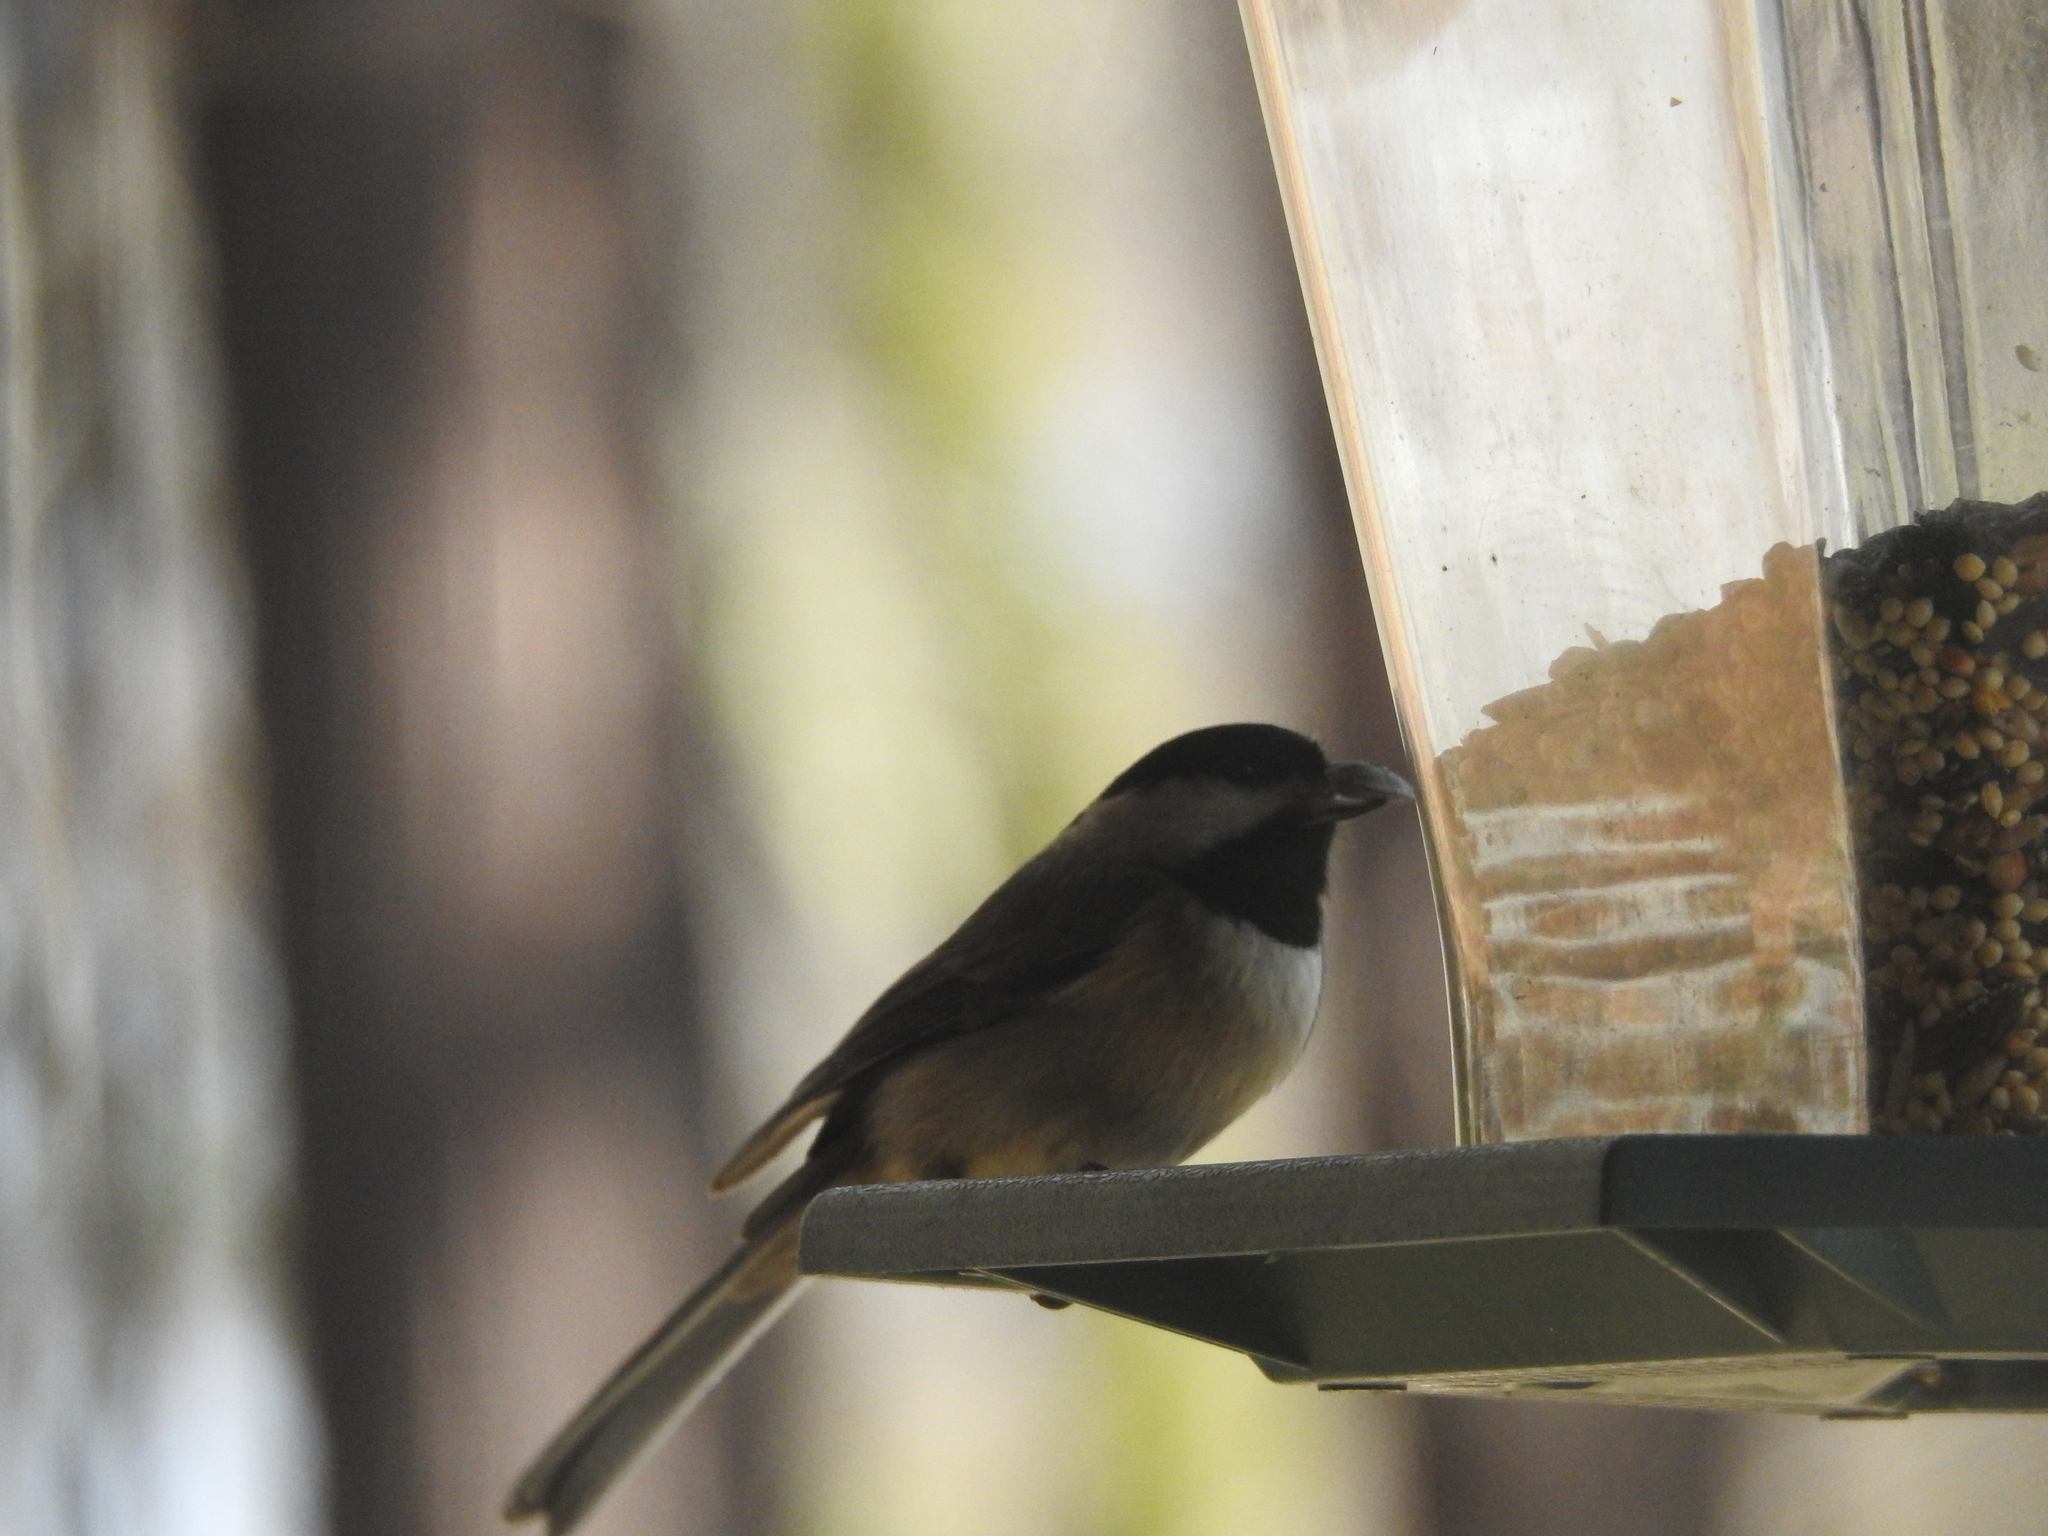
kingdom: Animalia
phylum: Chordata
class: Aves
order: Passeriformes
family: Paridae
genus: Poecile
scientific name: Poecile carolinensis
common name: Carolina chickadee
